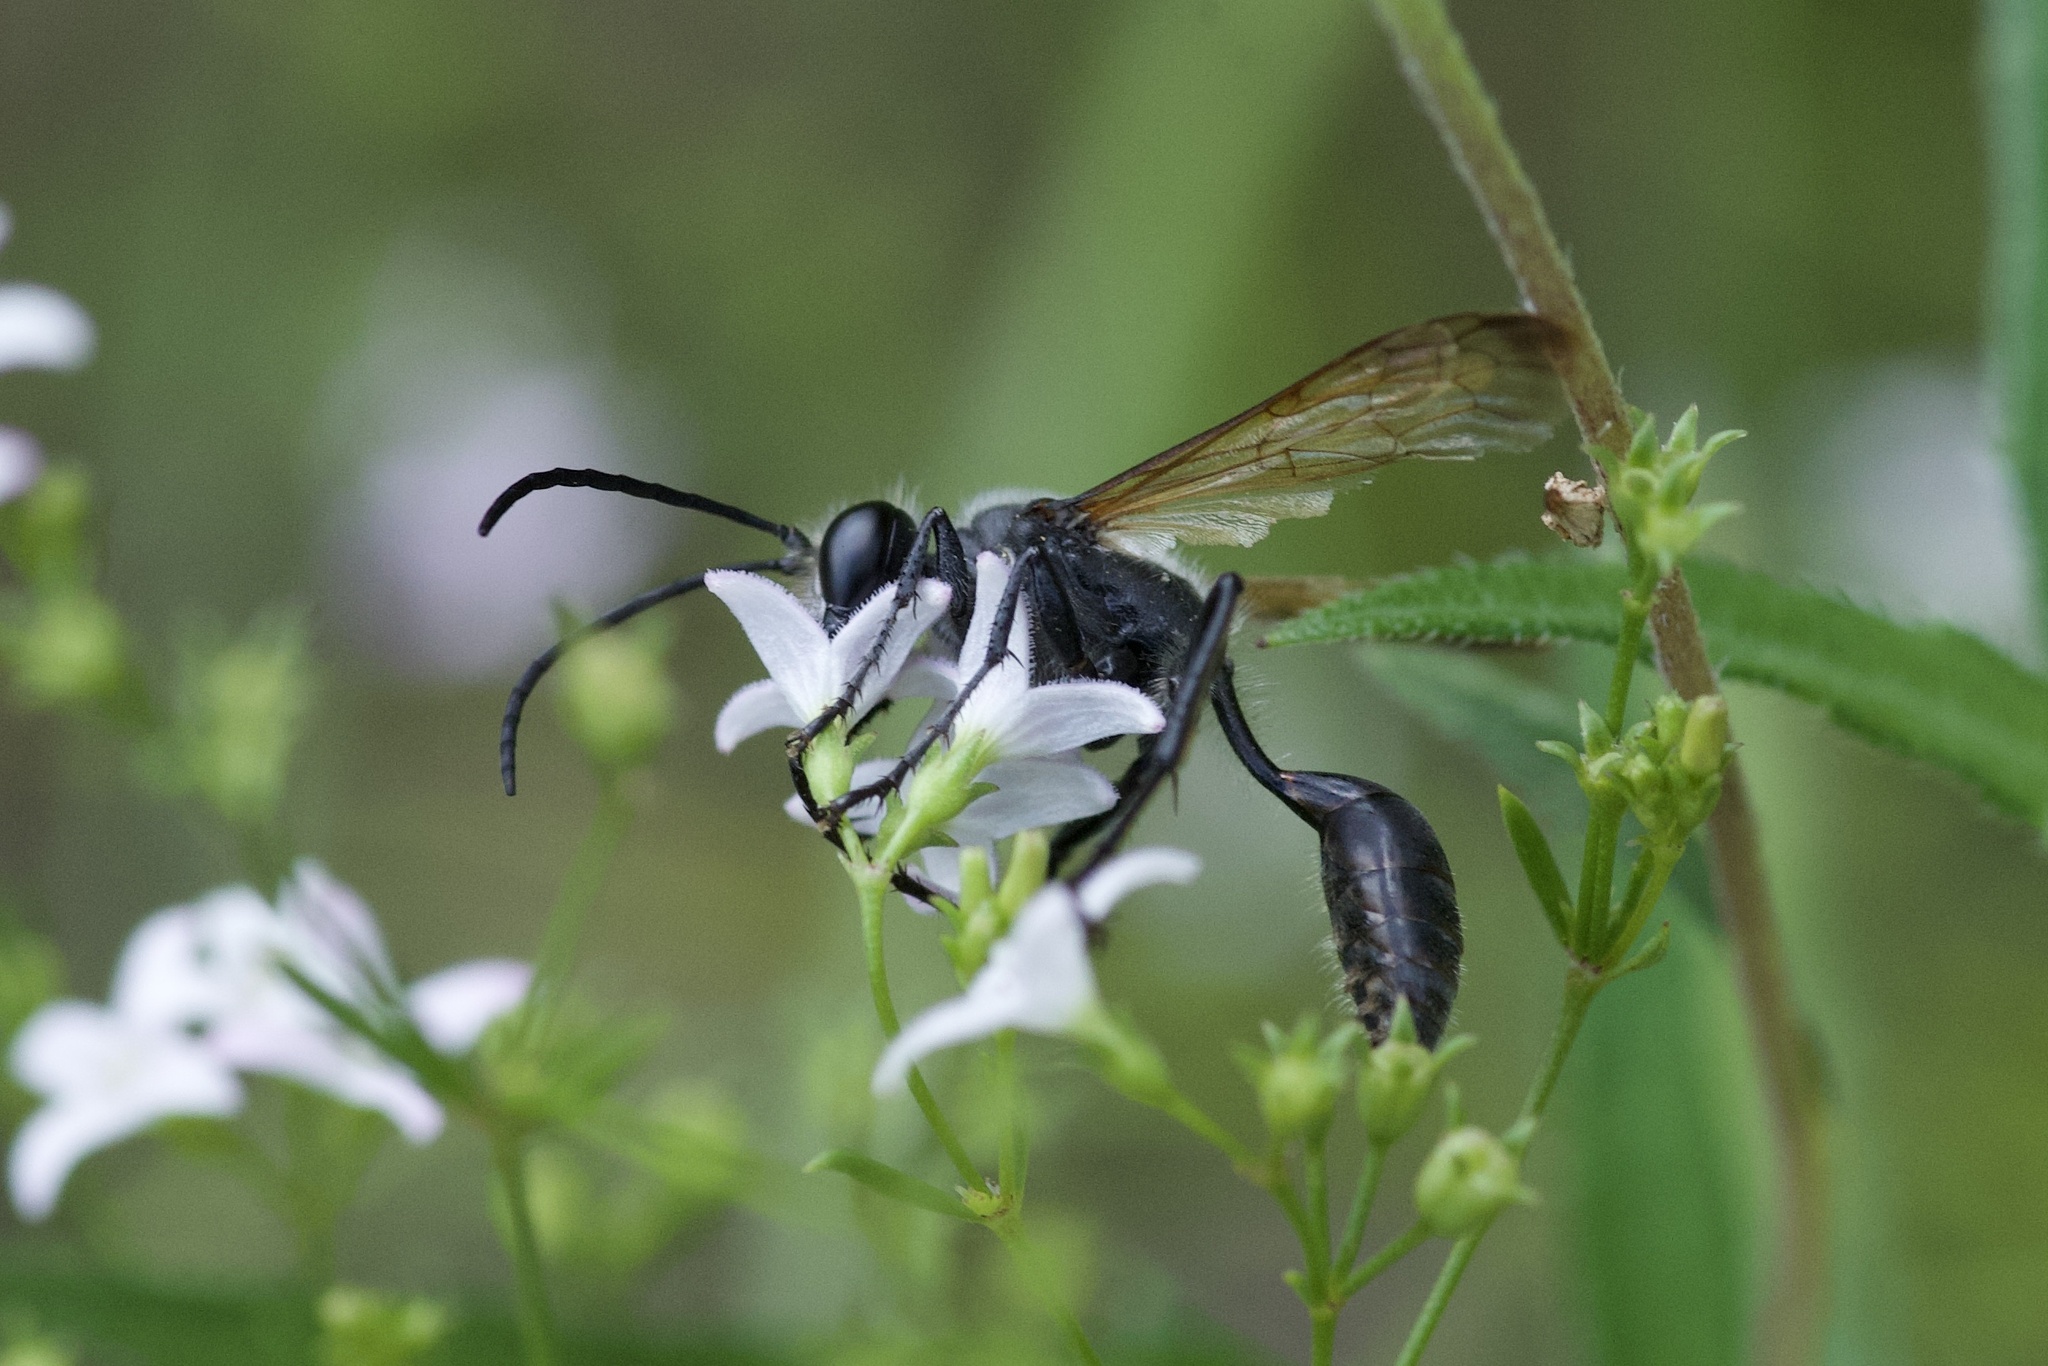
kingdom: Animalia
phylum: Arthropoda
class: Insecta
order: Hymenoptera
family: Sphecidae
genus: Isodontia
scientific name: Isodontia mexicana
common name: Mud dauber
